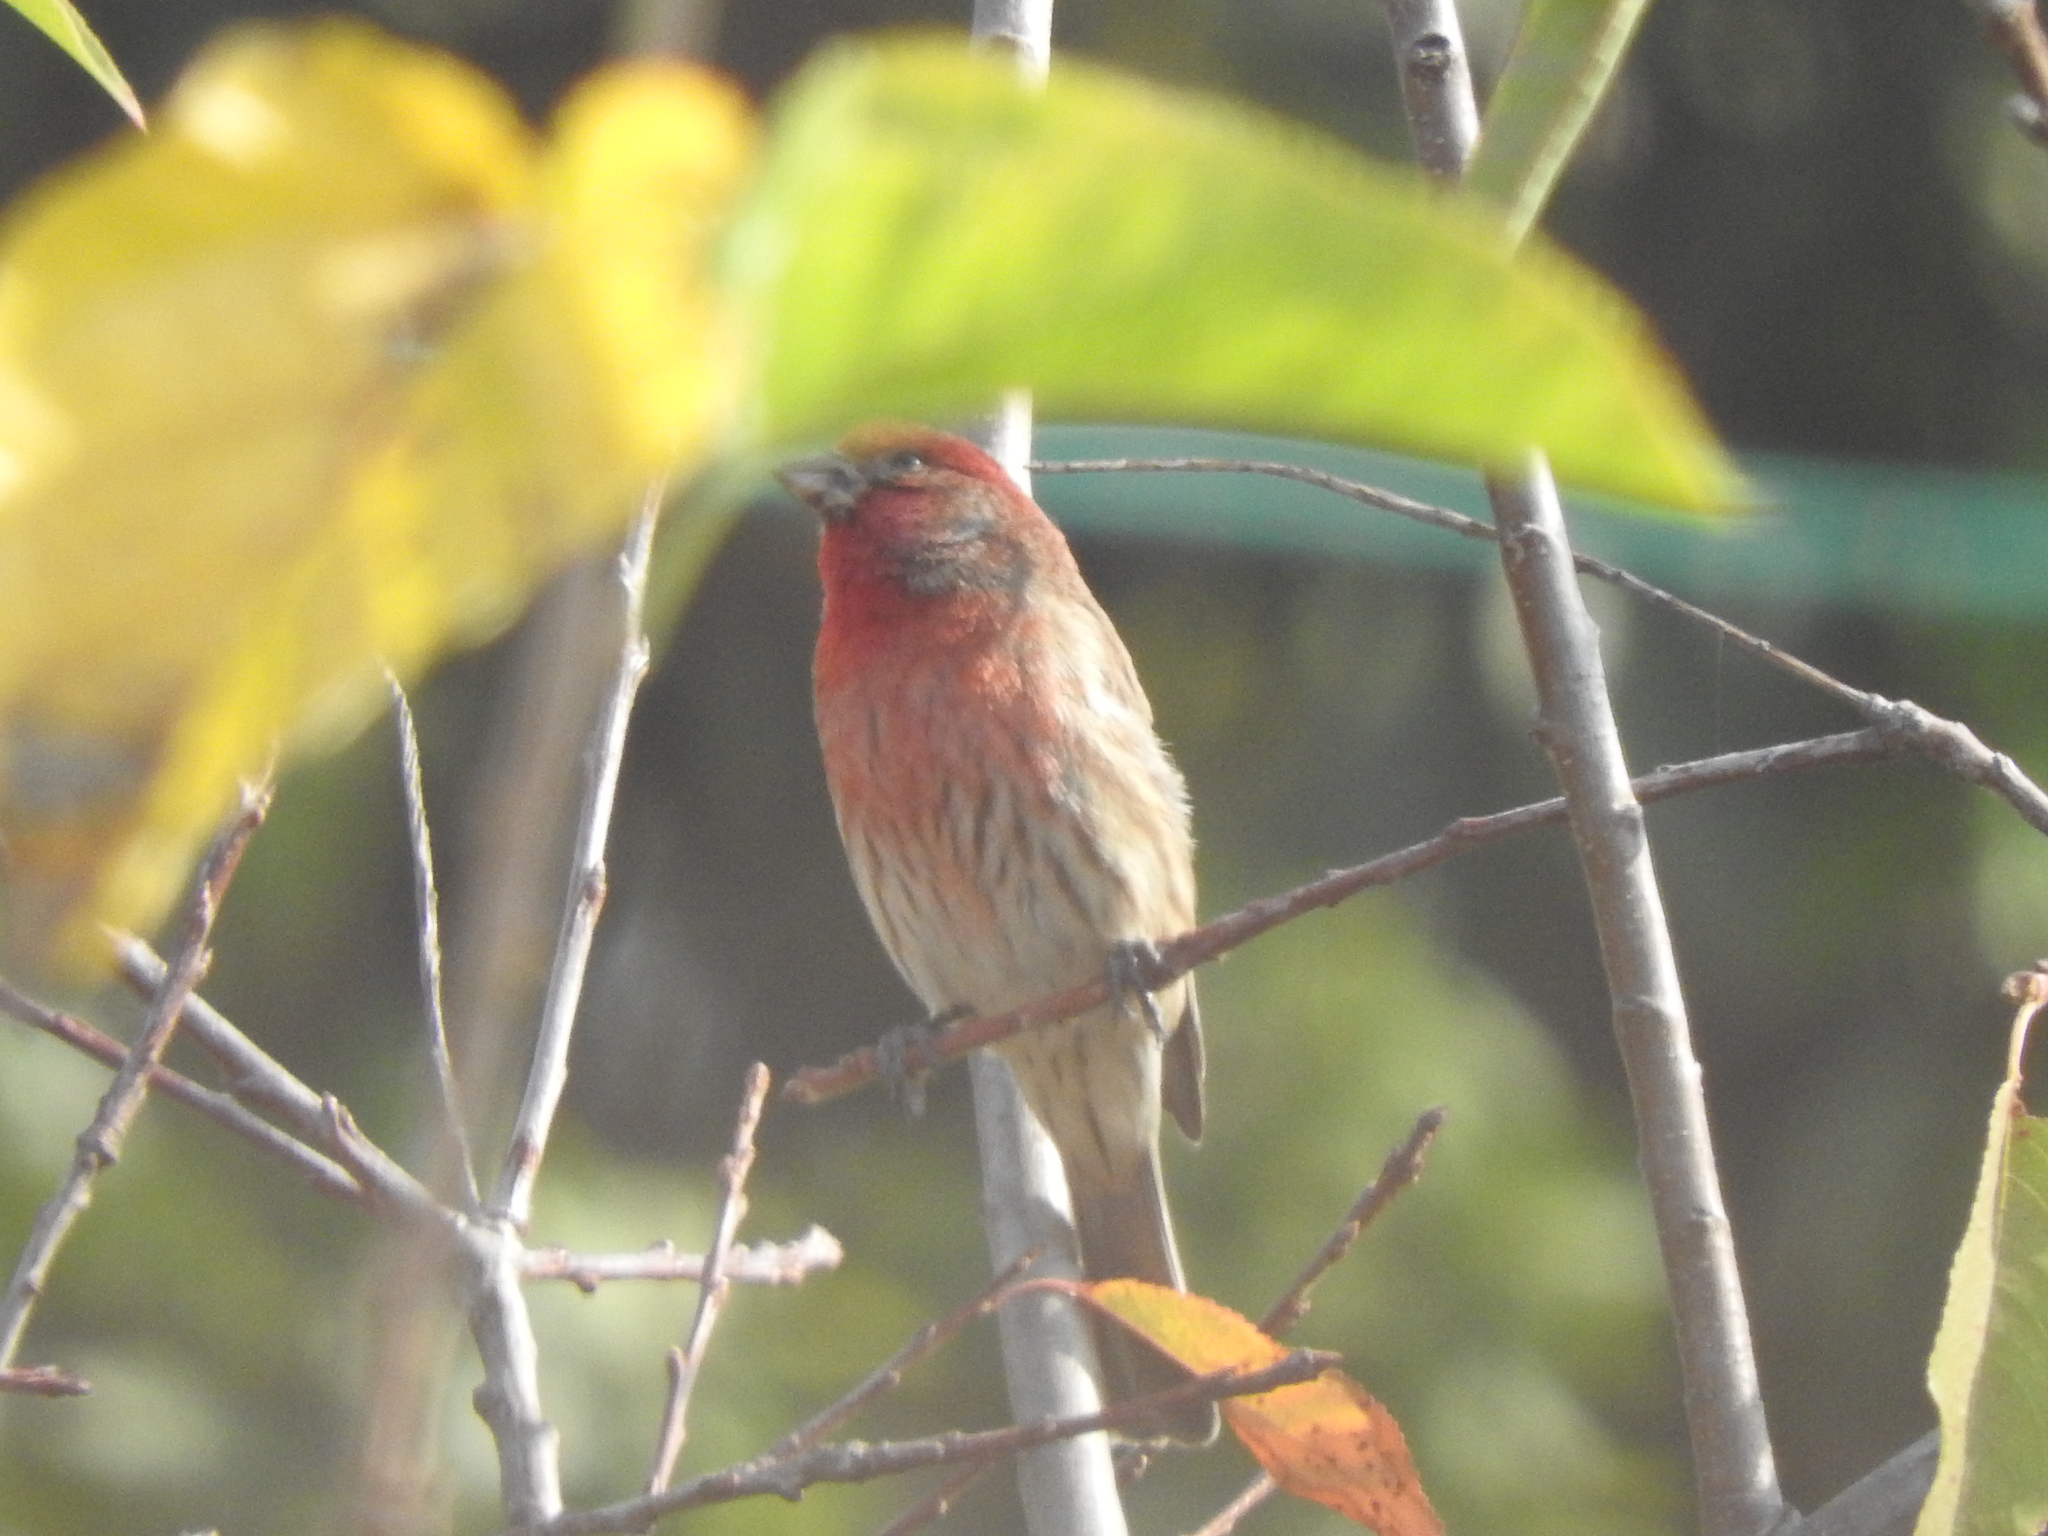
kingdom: Animalia
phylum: Chordata
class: Aves
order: Passeriformes
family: Fringillidae
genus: Haemorhous
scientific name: Haemorhous mexicanus
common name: House finch
